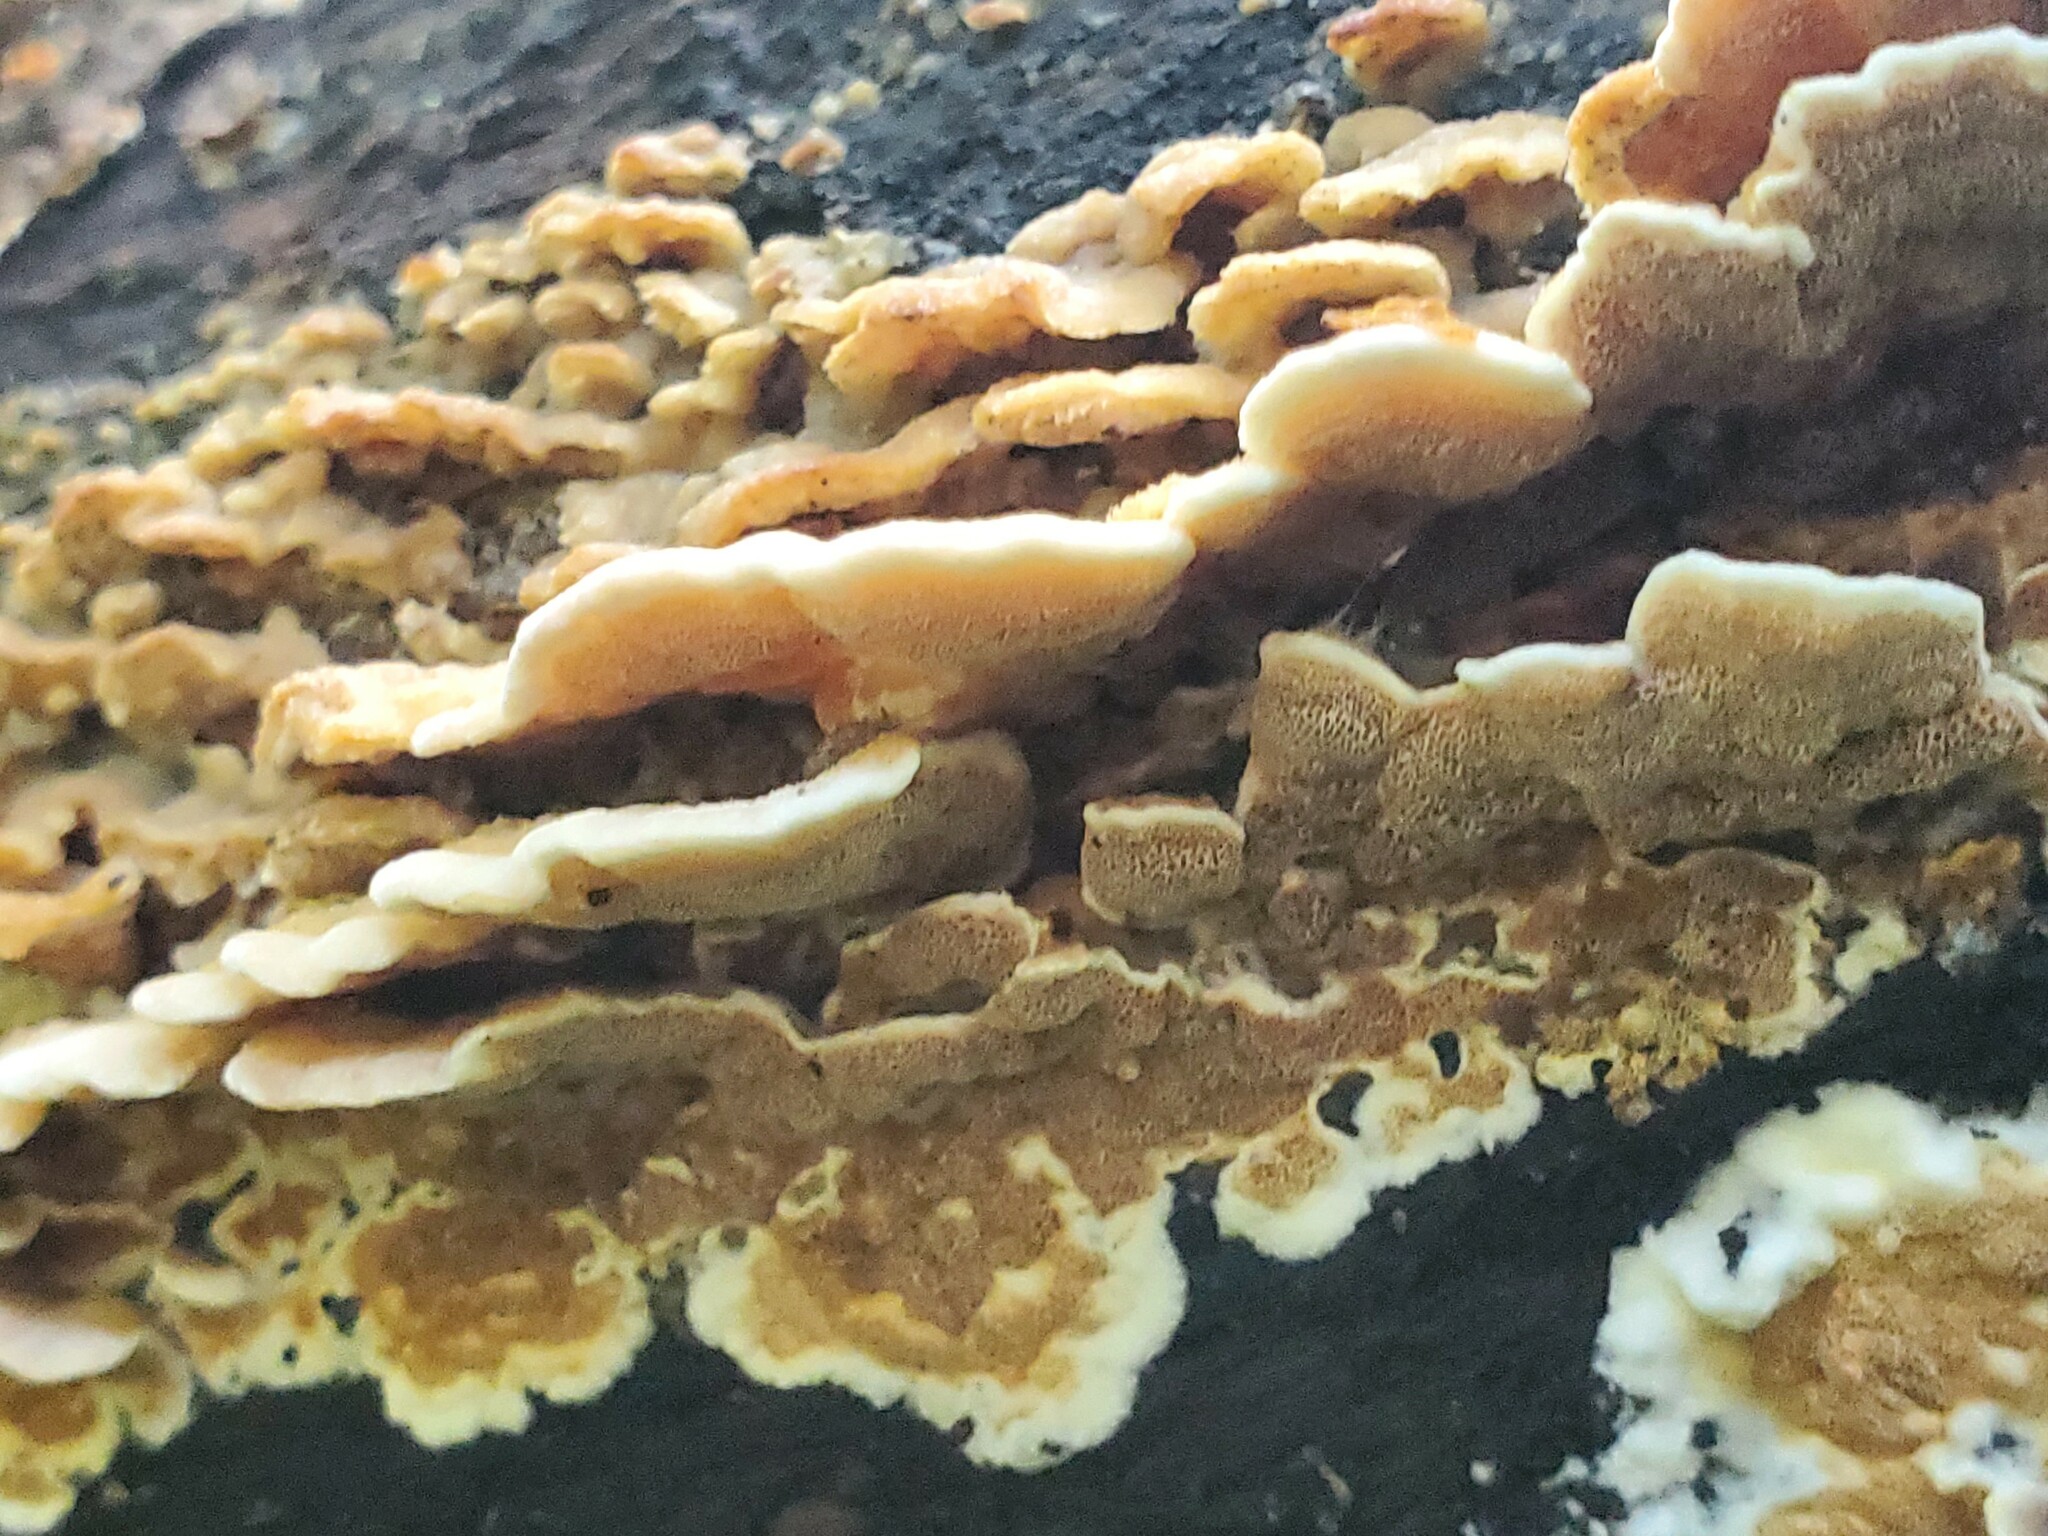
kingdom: Fungi
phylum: Basidiomycota
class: Agaricomycetes
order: Polyporales
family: Irpicaceae
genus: Vitreoporus
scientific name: Vitreoporus dichrous
